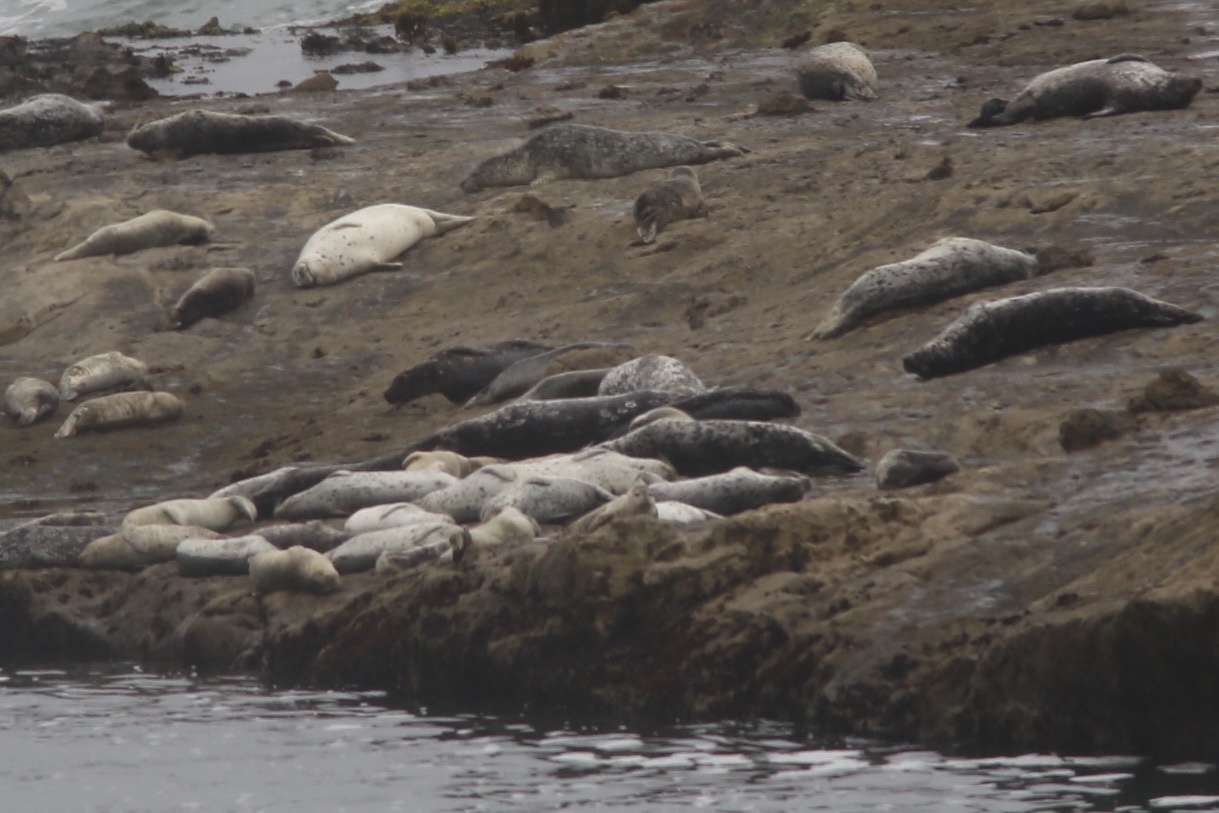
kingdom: Animalia
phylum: Chordata
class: Mammalia
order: Carnivora
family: Phocidae
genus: Phoca
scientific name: Phoca vitulina
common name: Harbor seal
